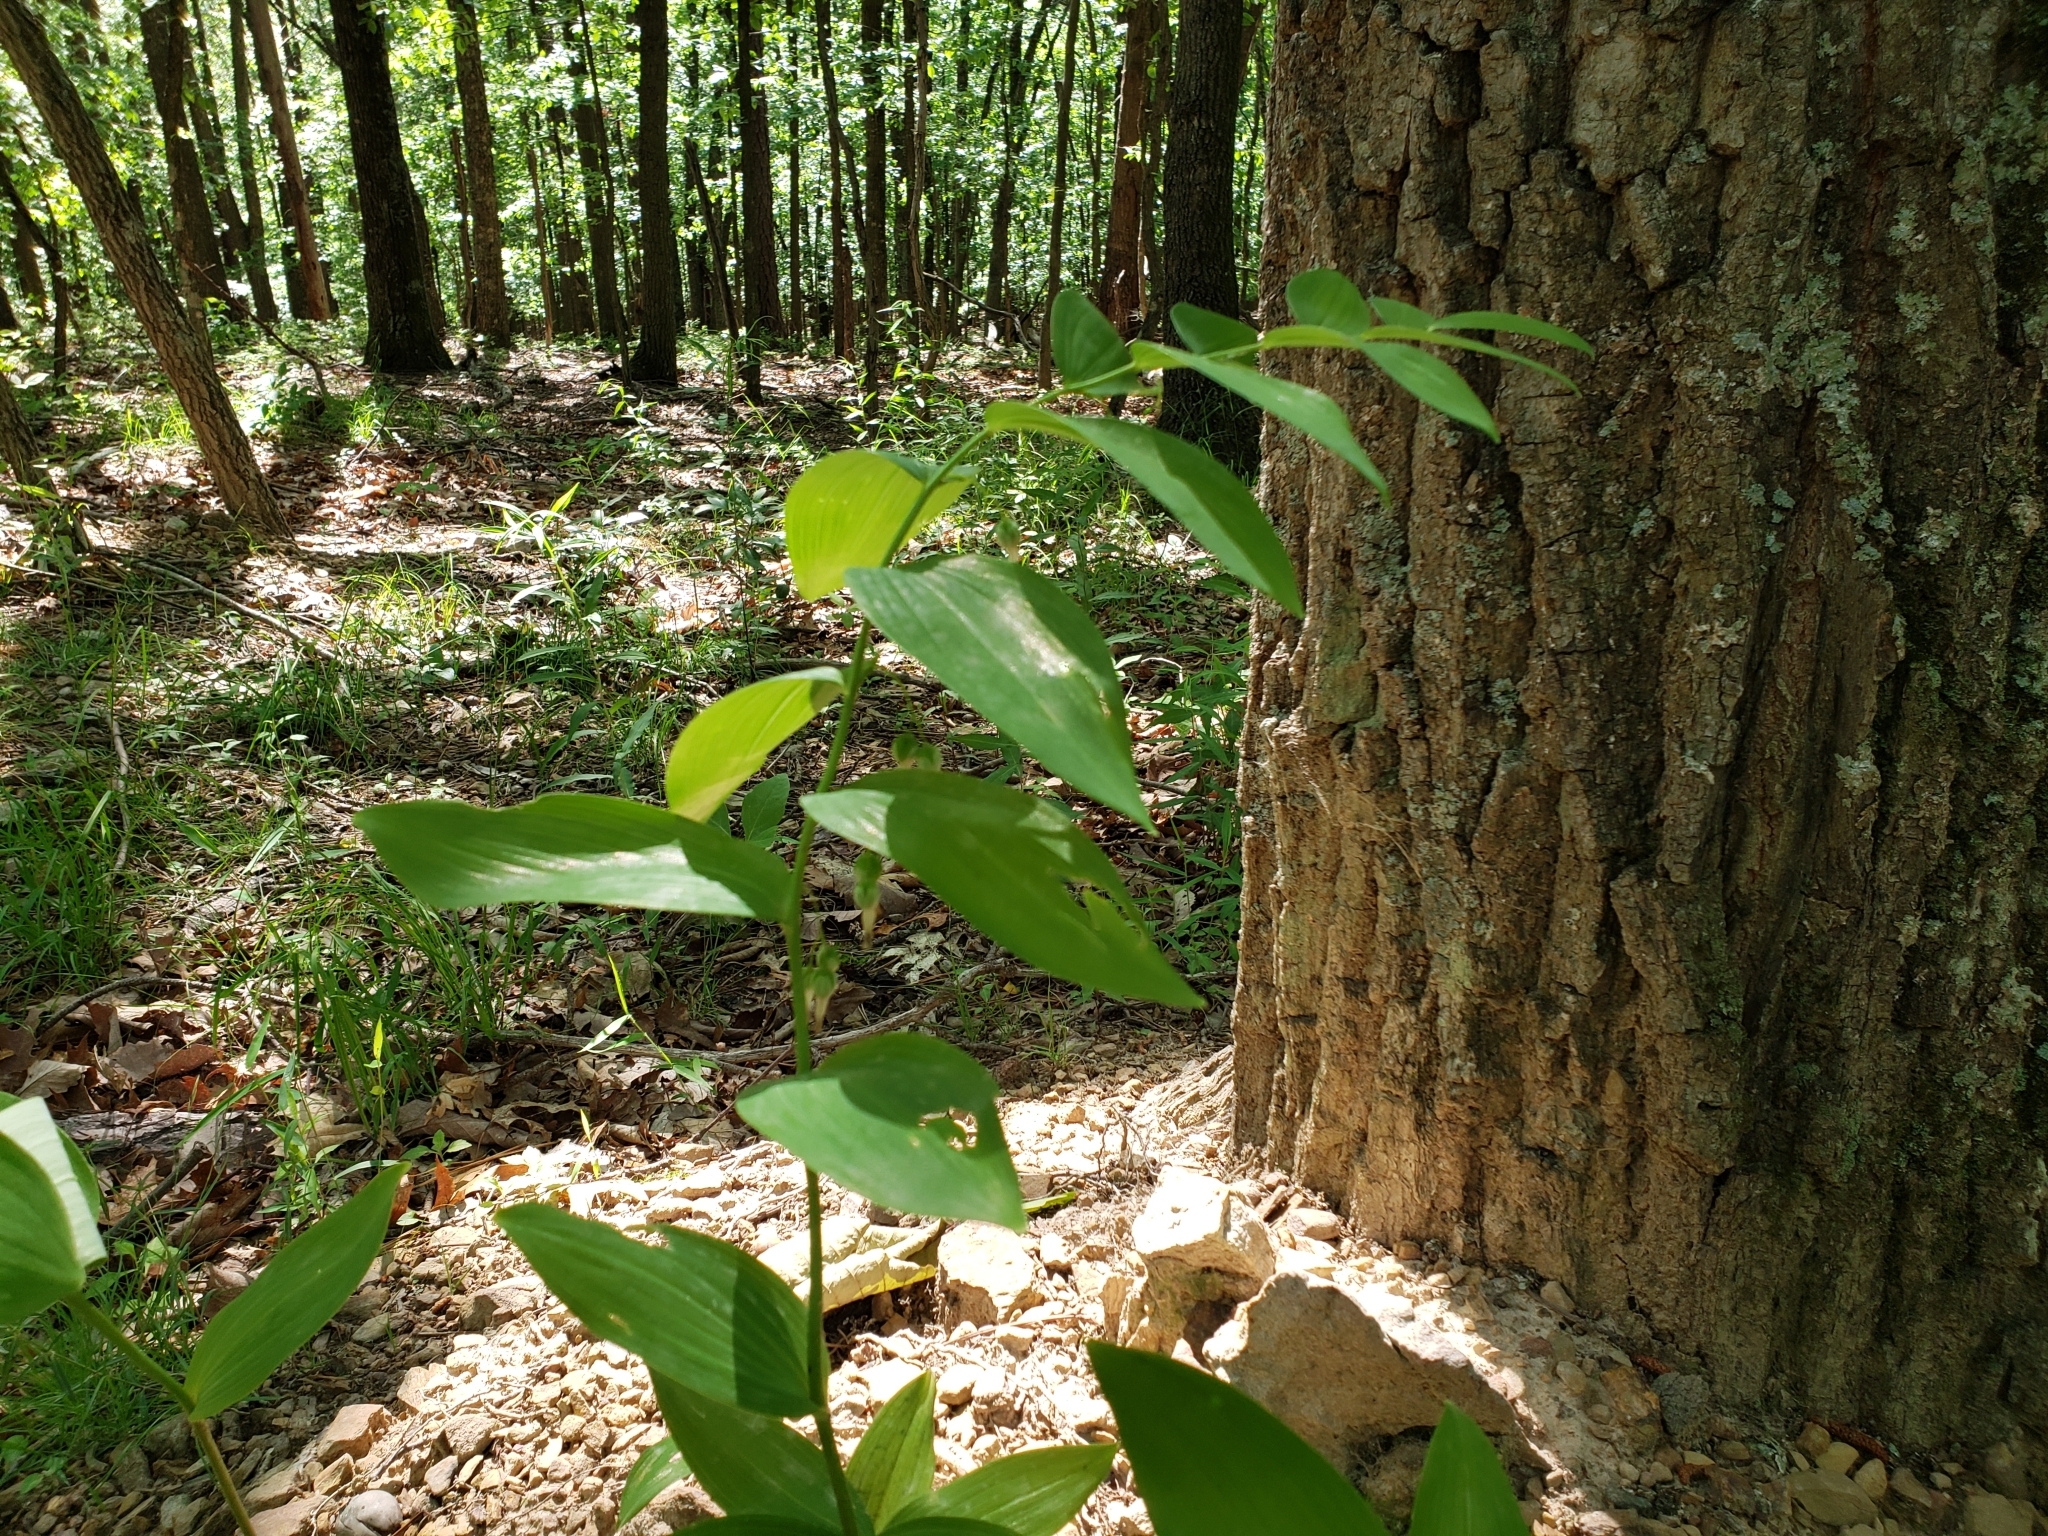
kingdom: Plantae
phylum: Tracheophyta
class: Liliopsida
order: Asparagales
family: Asparagaceae
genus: Polygonatum
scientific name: Polygonatum biflorum
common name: American solomon's-seal
